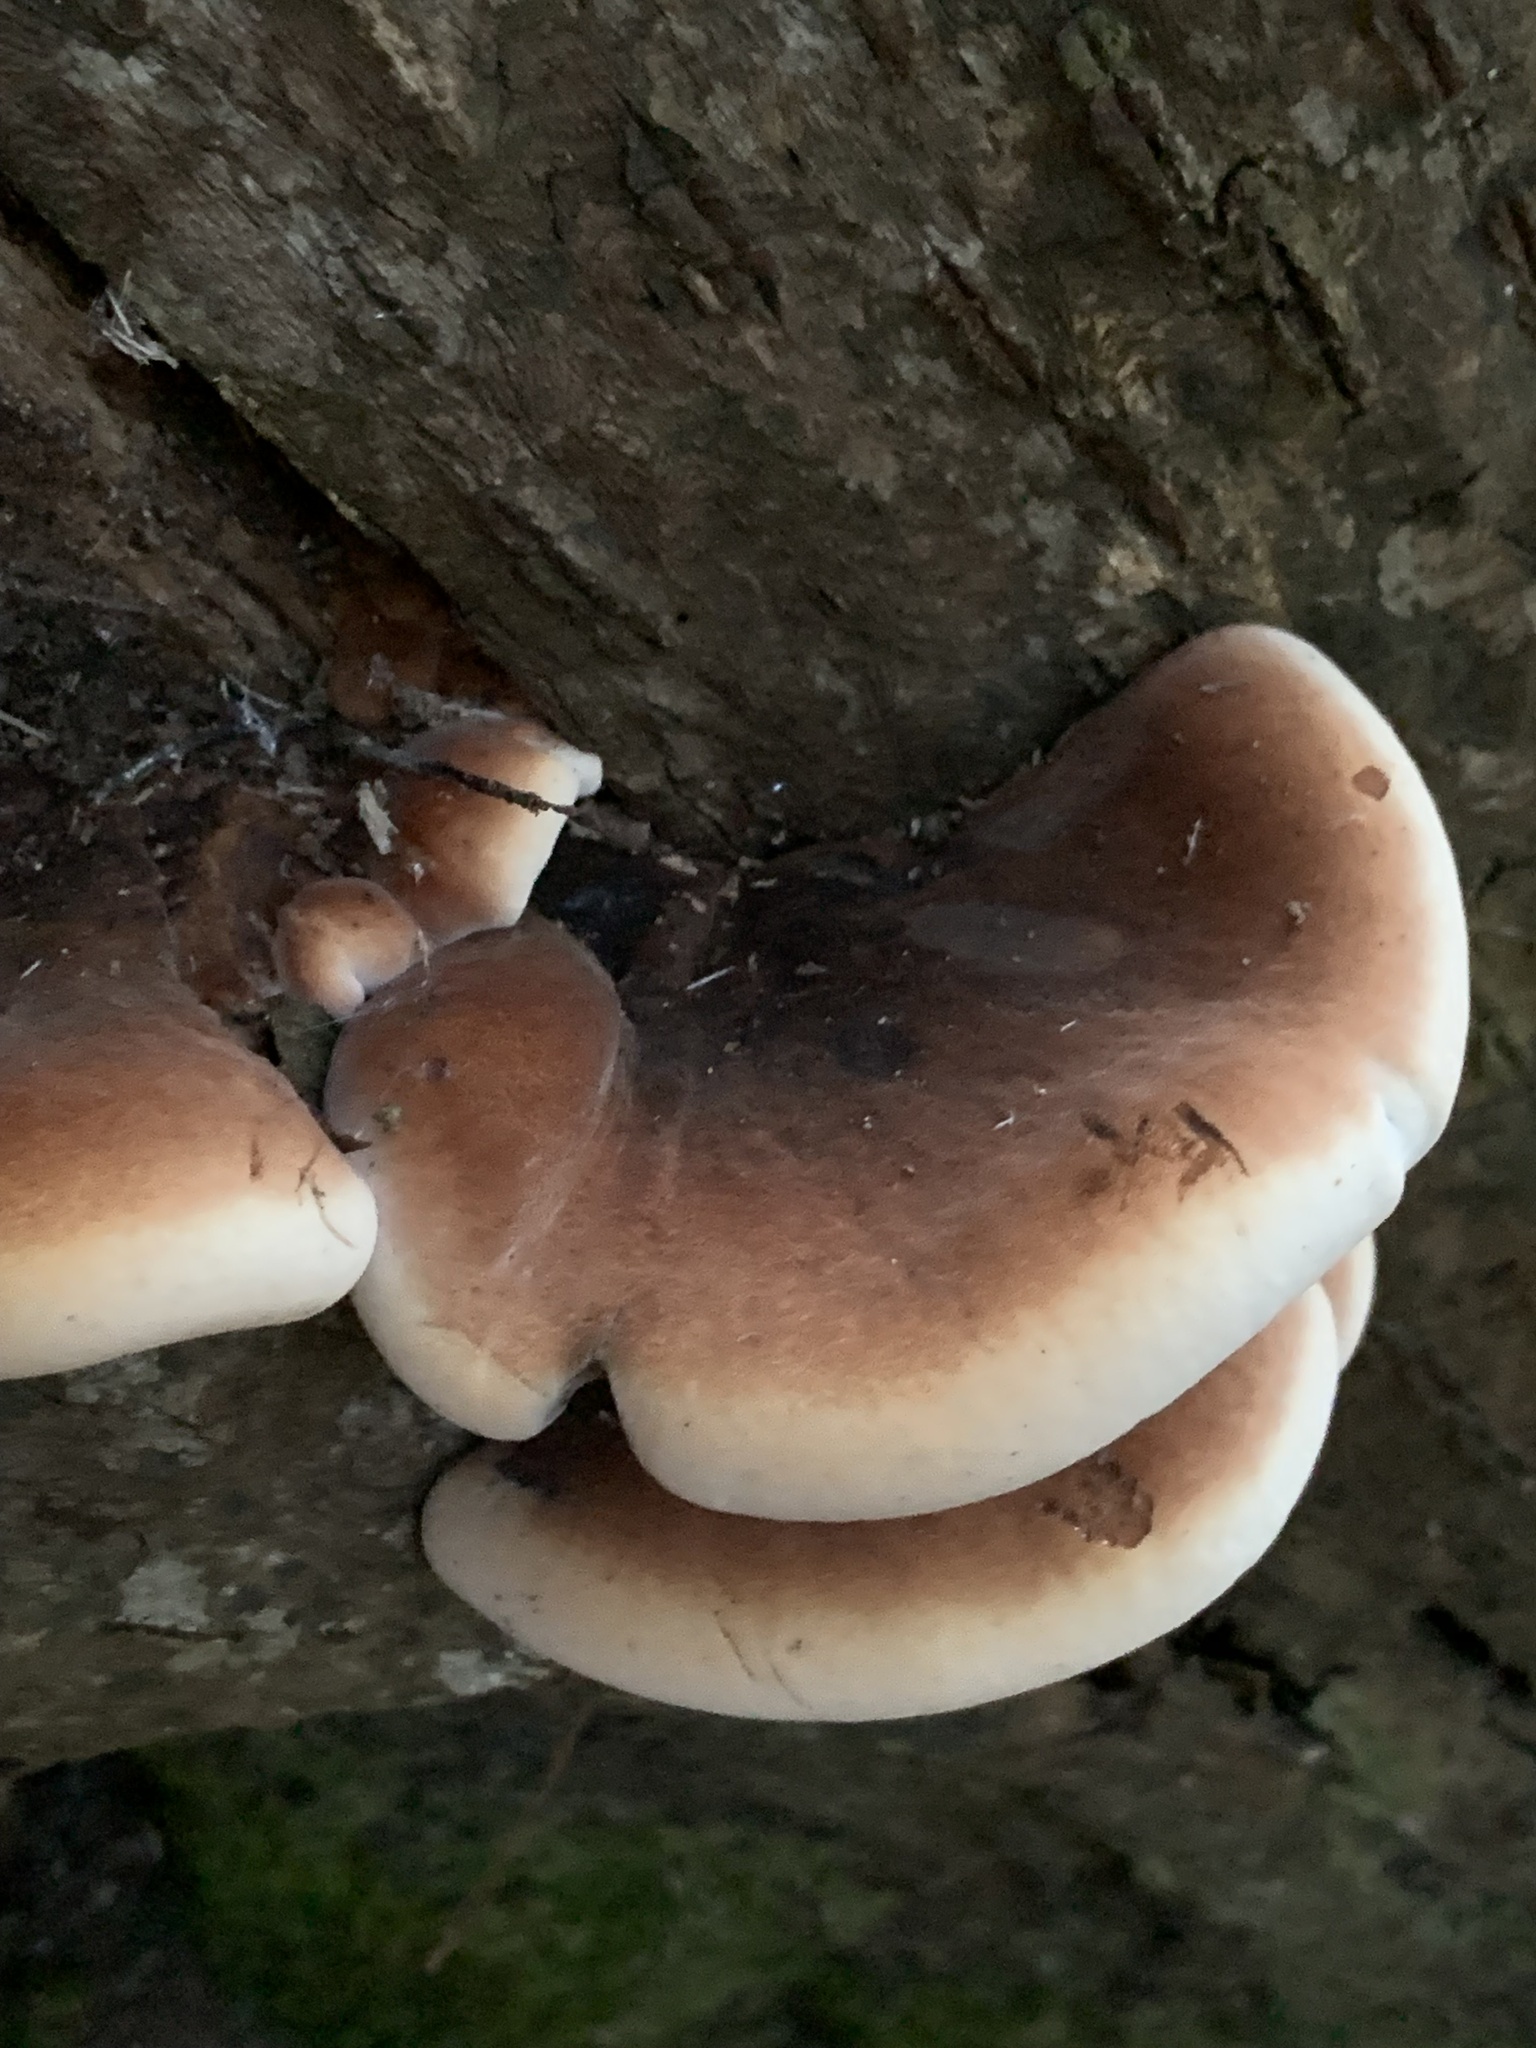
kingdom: Fungi
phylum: Basidiomycota
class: Agaricomycetes
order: Polyporales
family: Ischnodermataceae
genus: Ischnoderma
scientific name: Ischnoderma resinosum
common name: Resinous polypore
